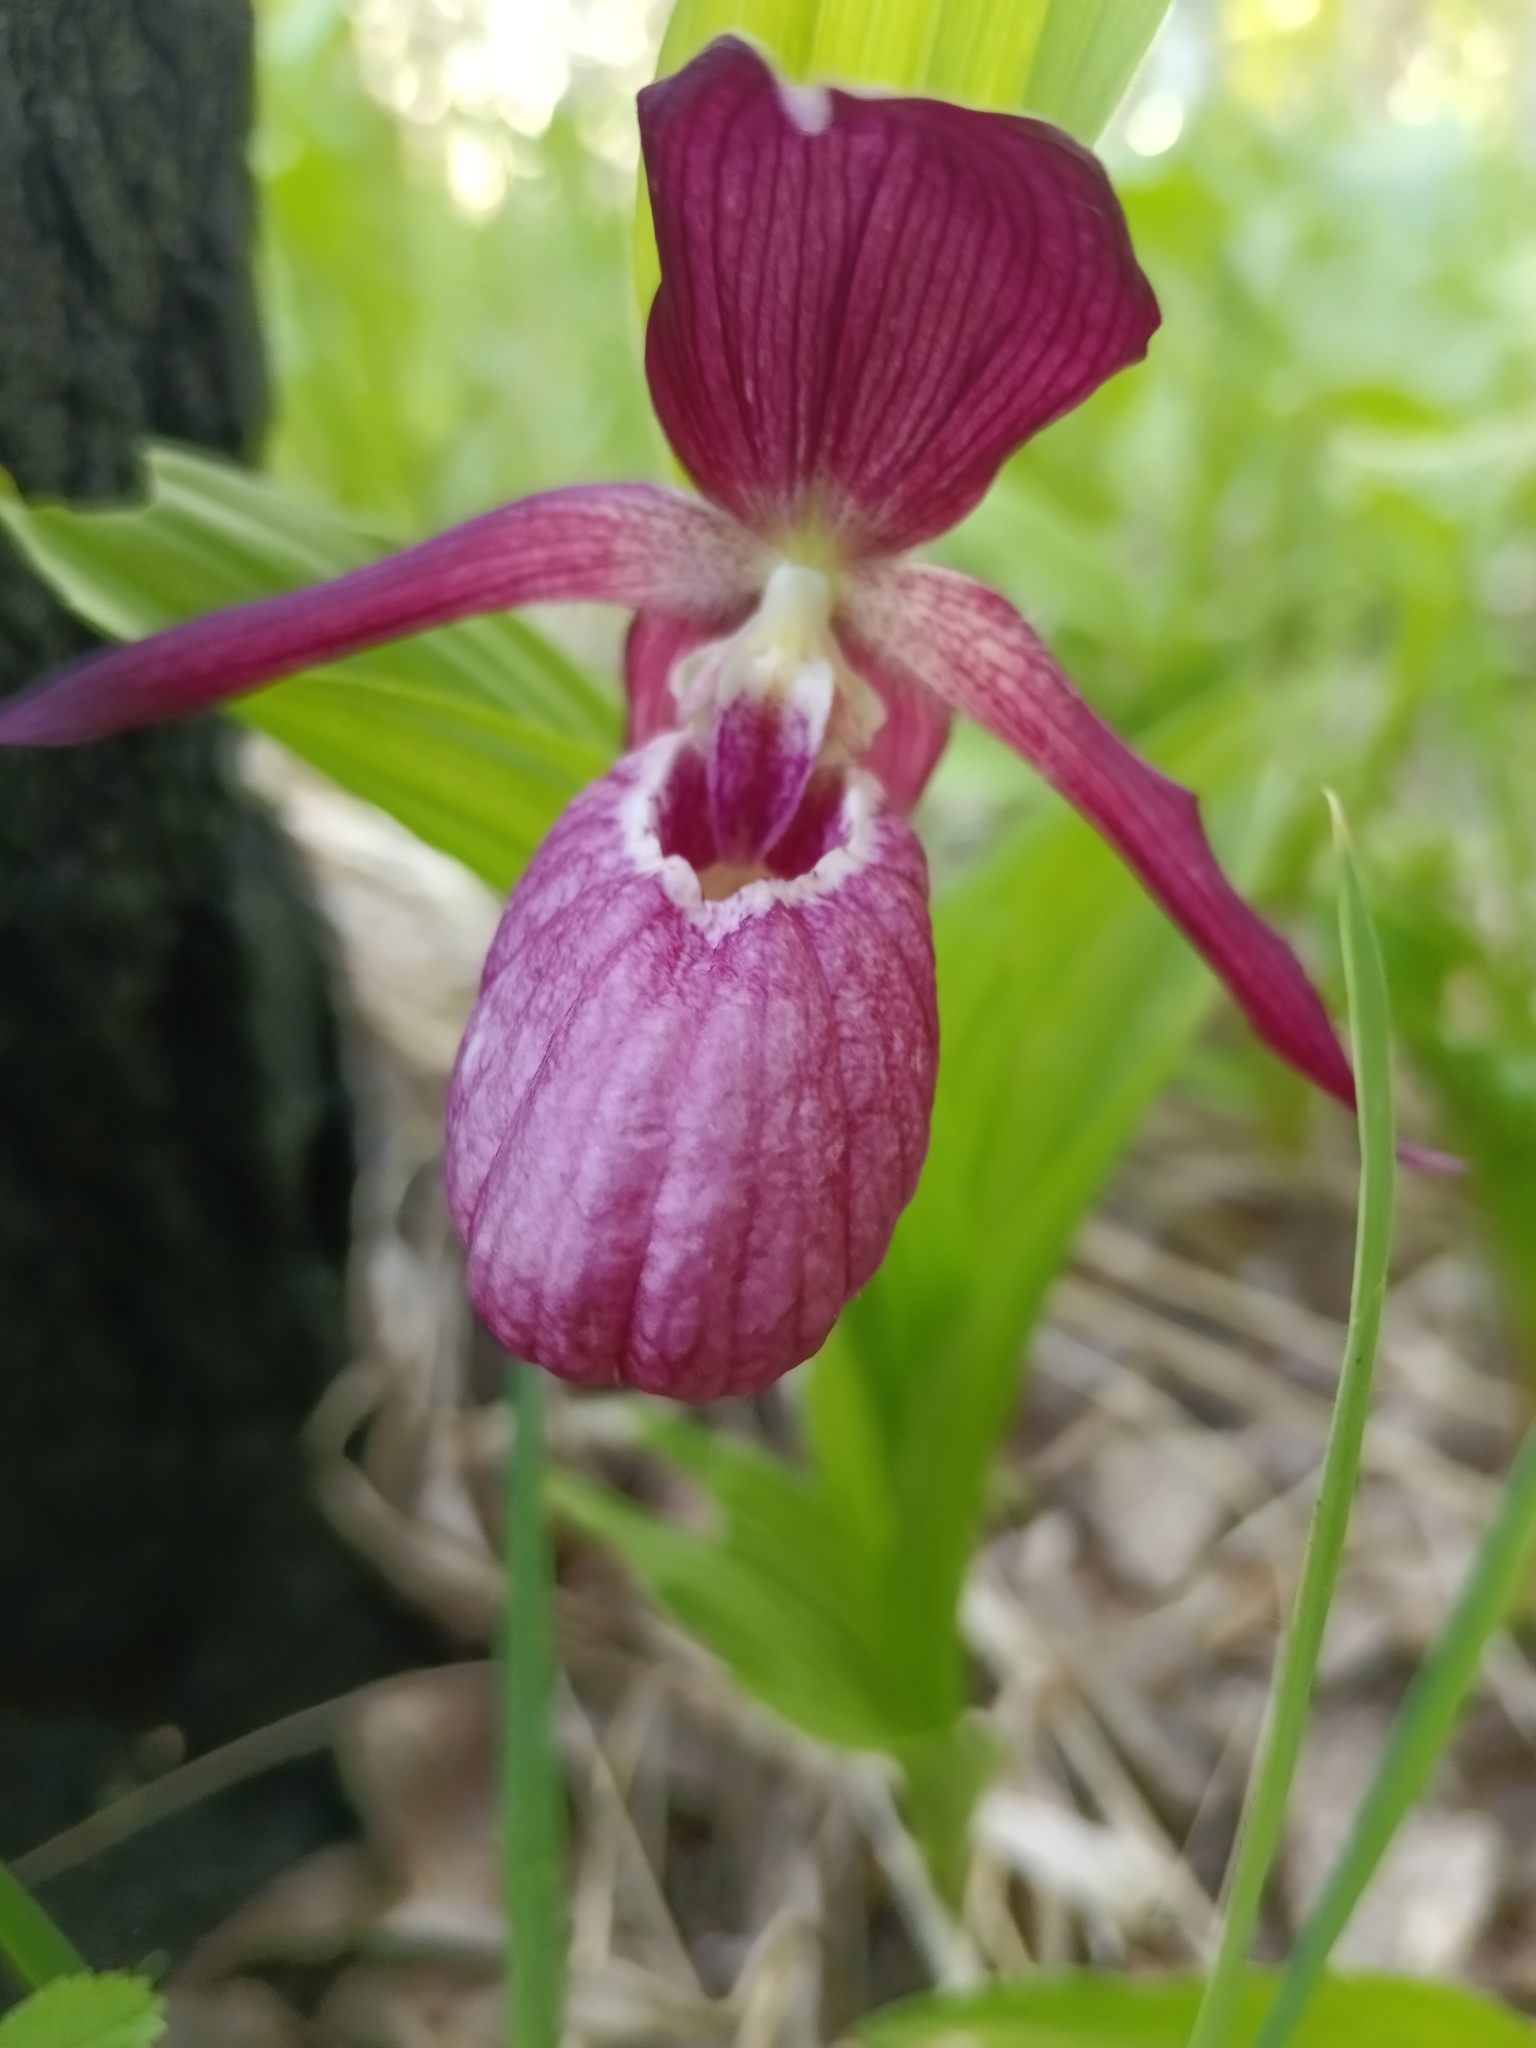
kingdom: Plantae
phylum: Tracheophyta
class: Liliopsida
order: Asparagales
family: Orchidaceae
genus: Cypripedium
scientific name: Cypripedium ventricosum
